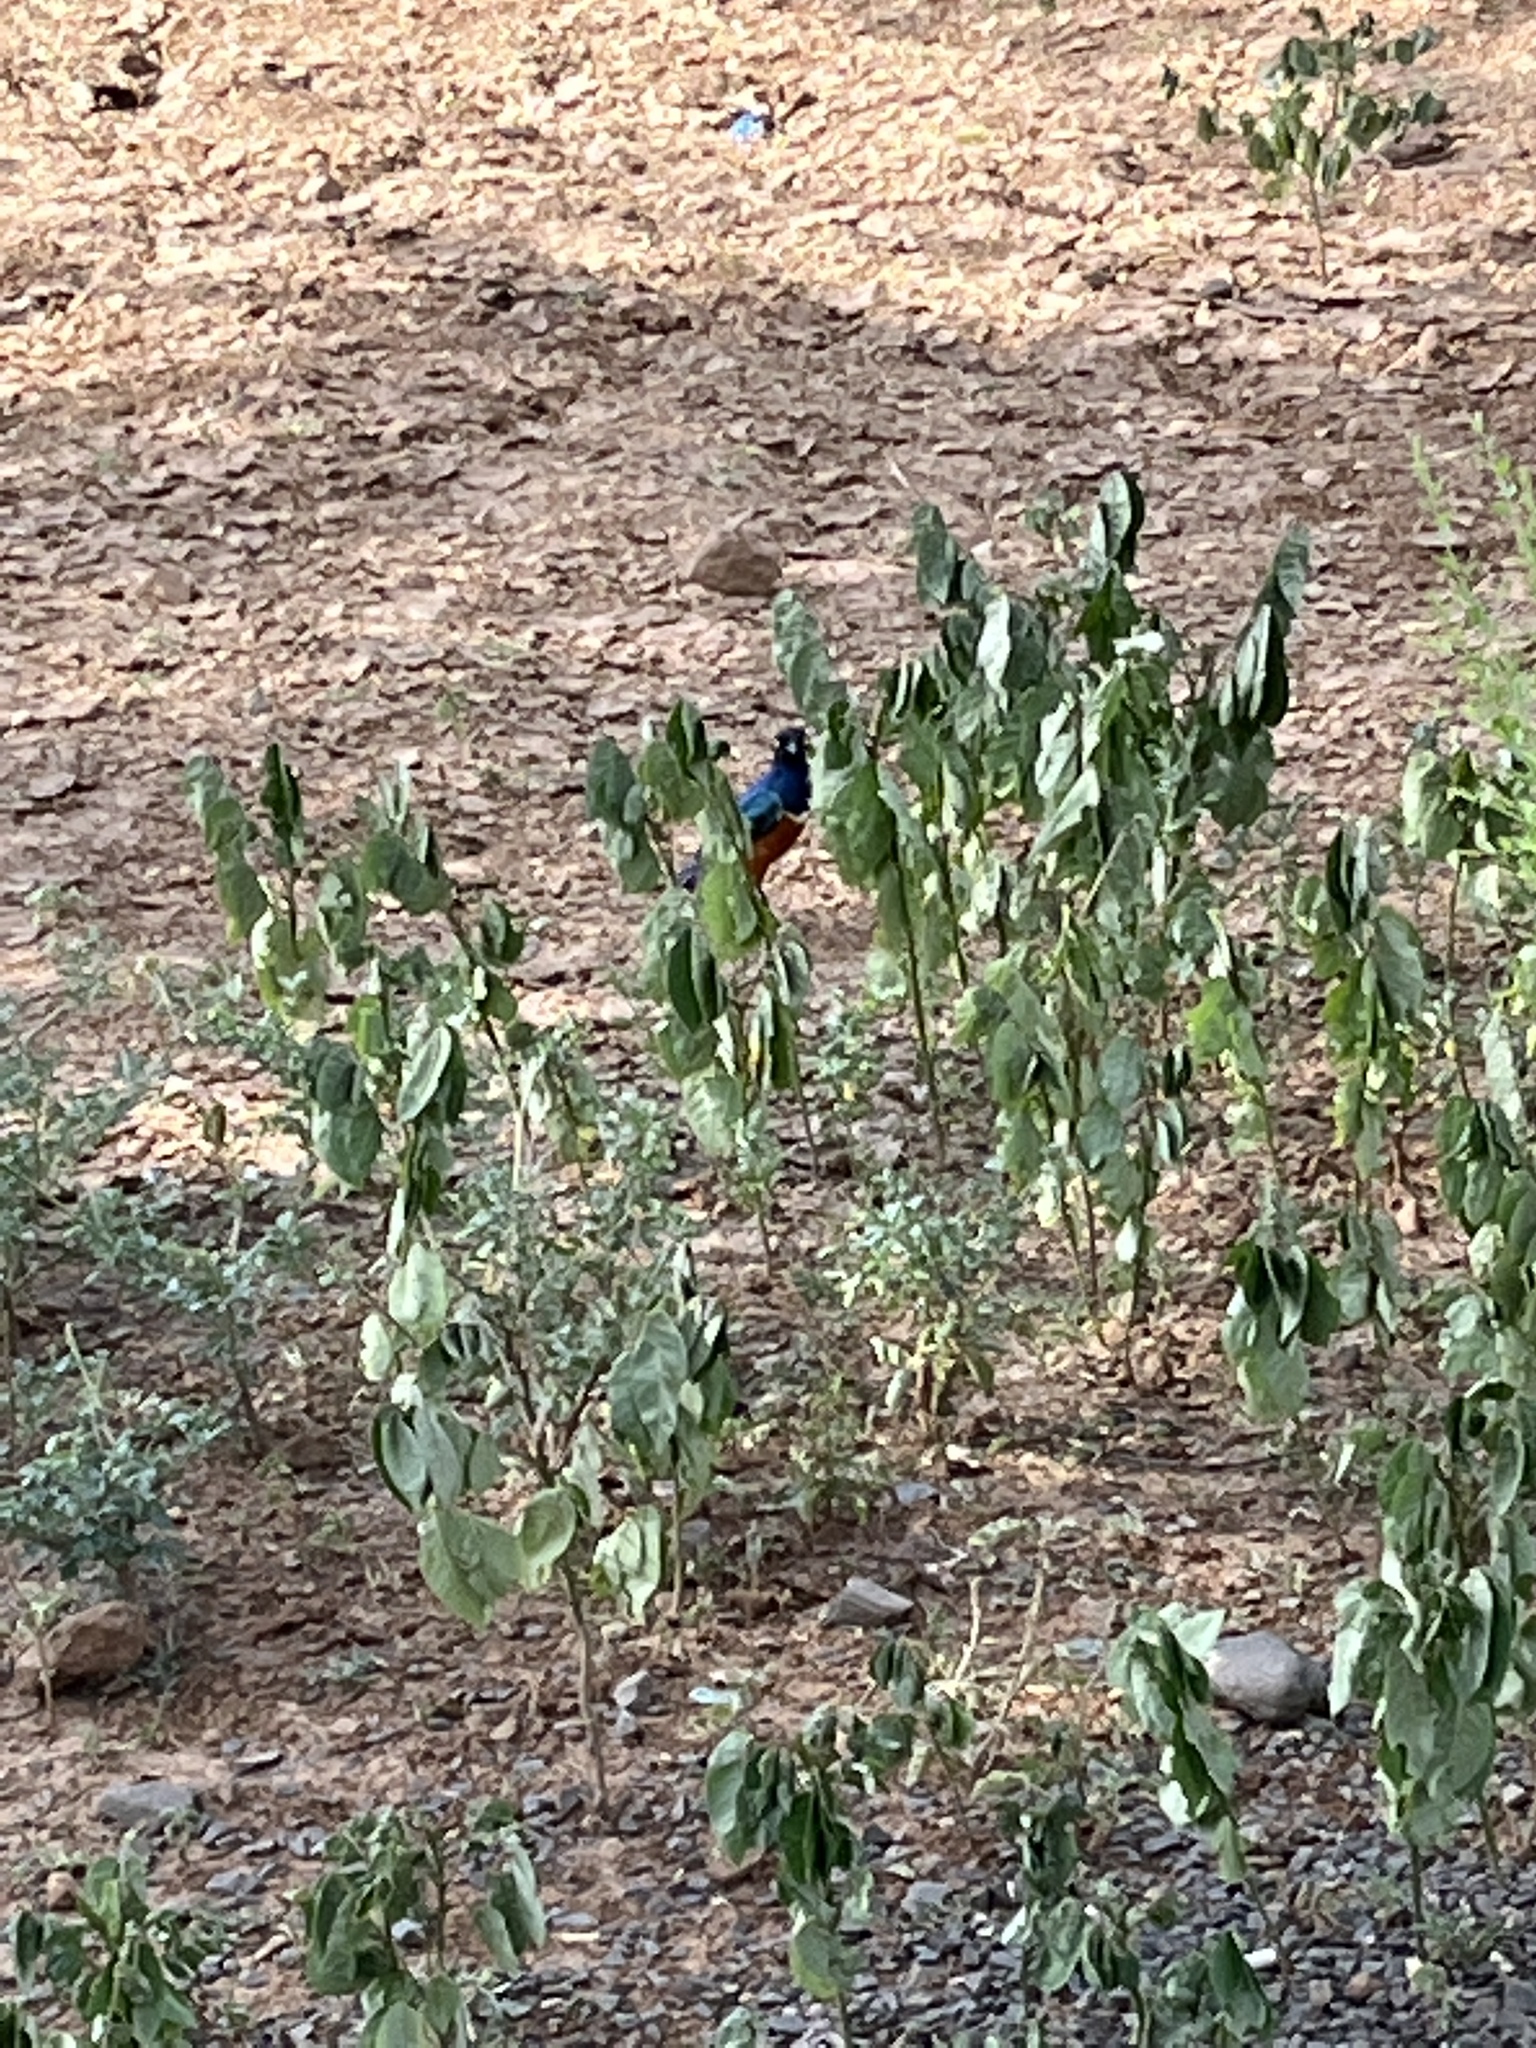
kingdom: Animalia
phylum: Chordata
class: Aves
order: Passeriformes
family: Sturnidae
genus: Lamprotornis
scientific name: Lamprotornis superbus
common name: Superb starling
